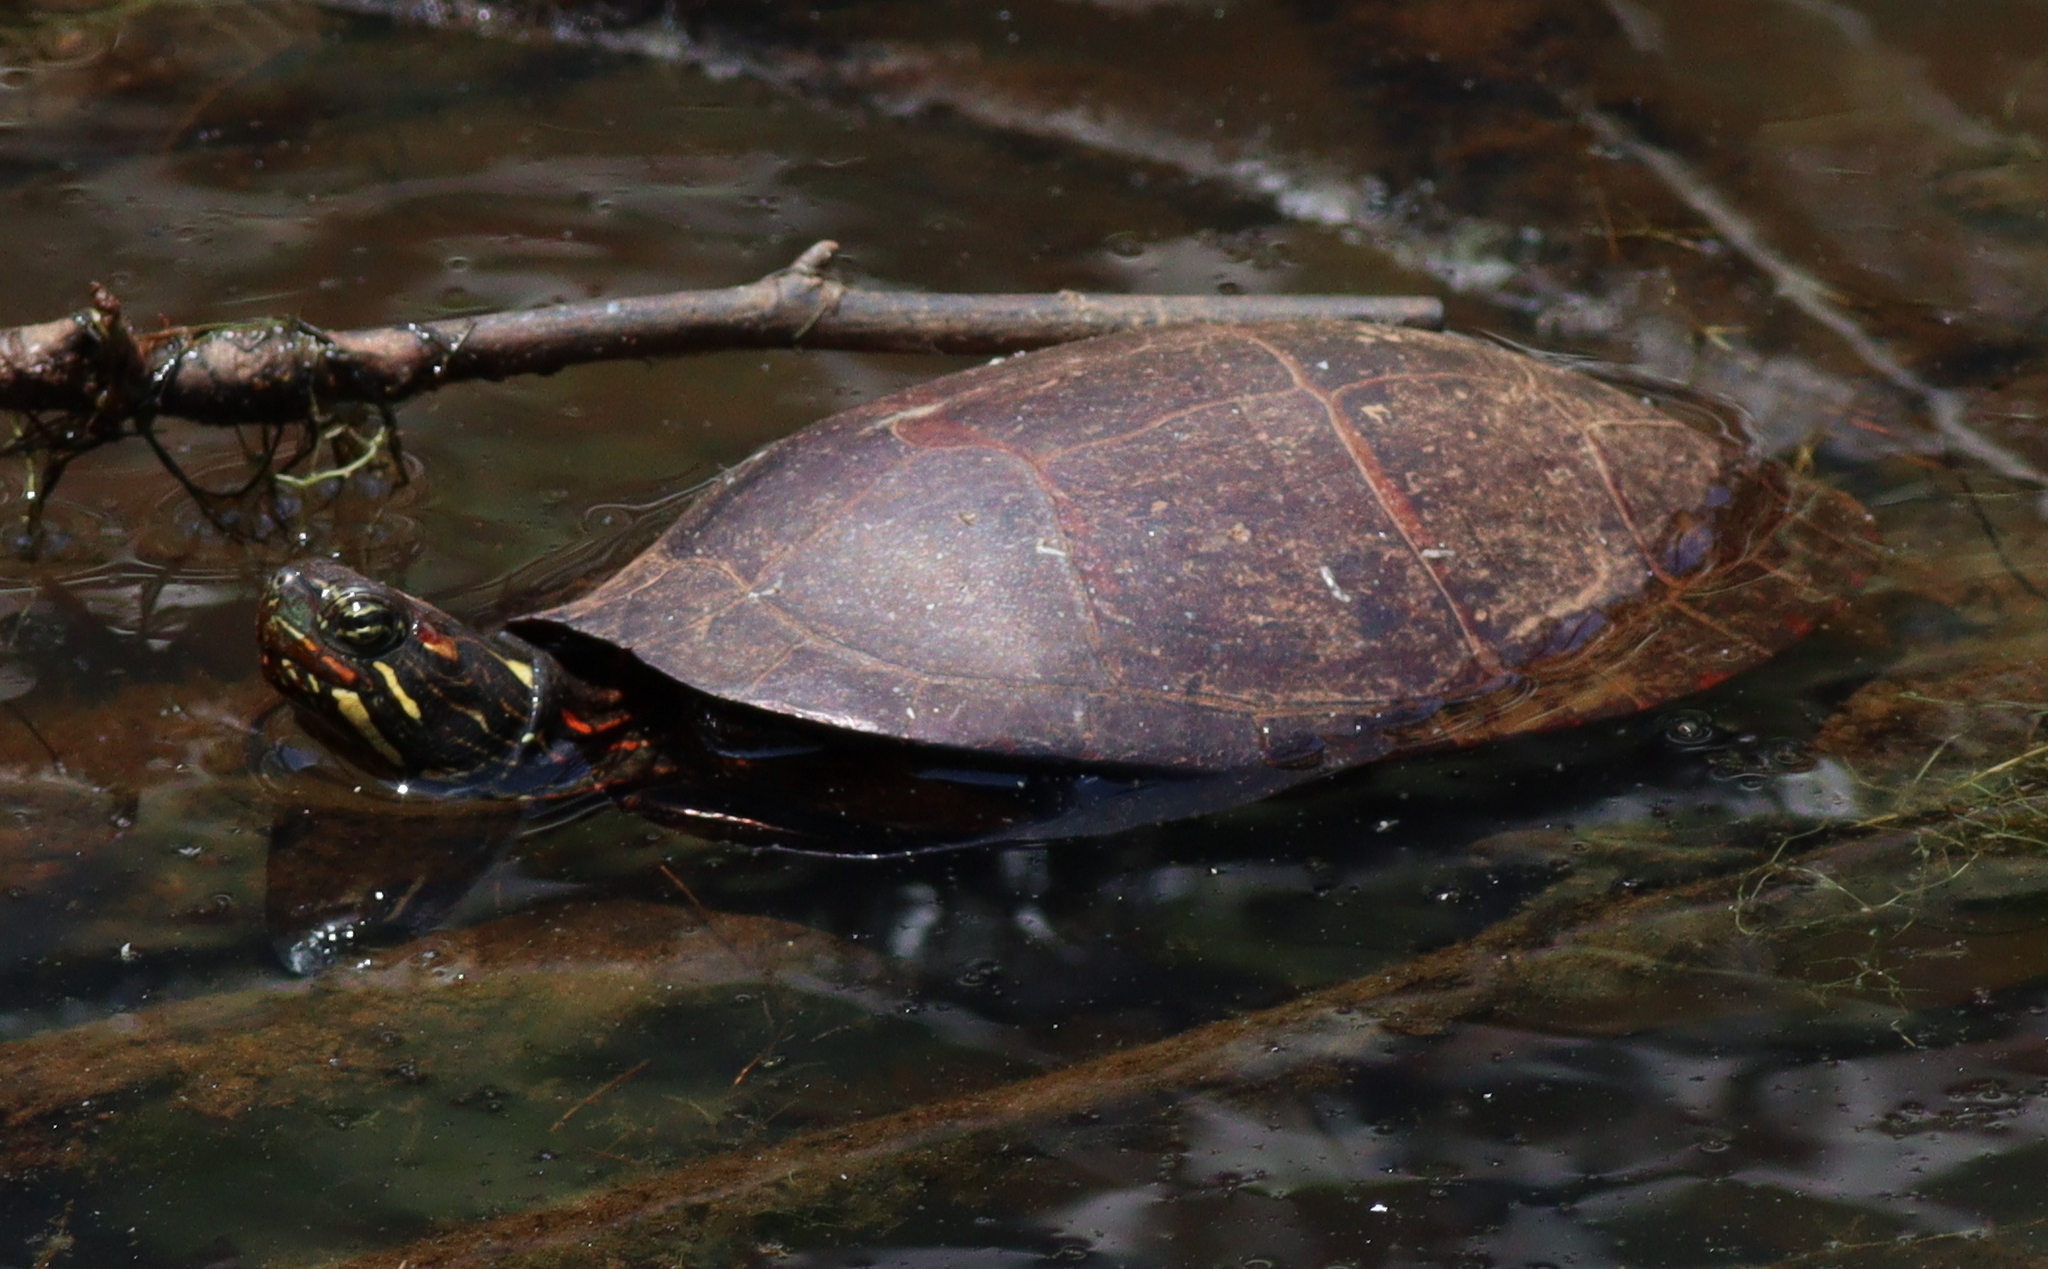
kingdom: Animalia
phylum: Chordata
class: Testudines
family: Emydidae
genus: Chrysemys
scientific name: Chrysemys picta
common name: Painted turtle
